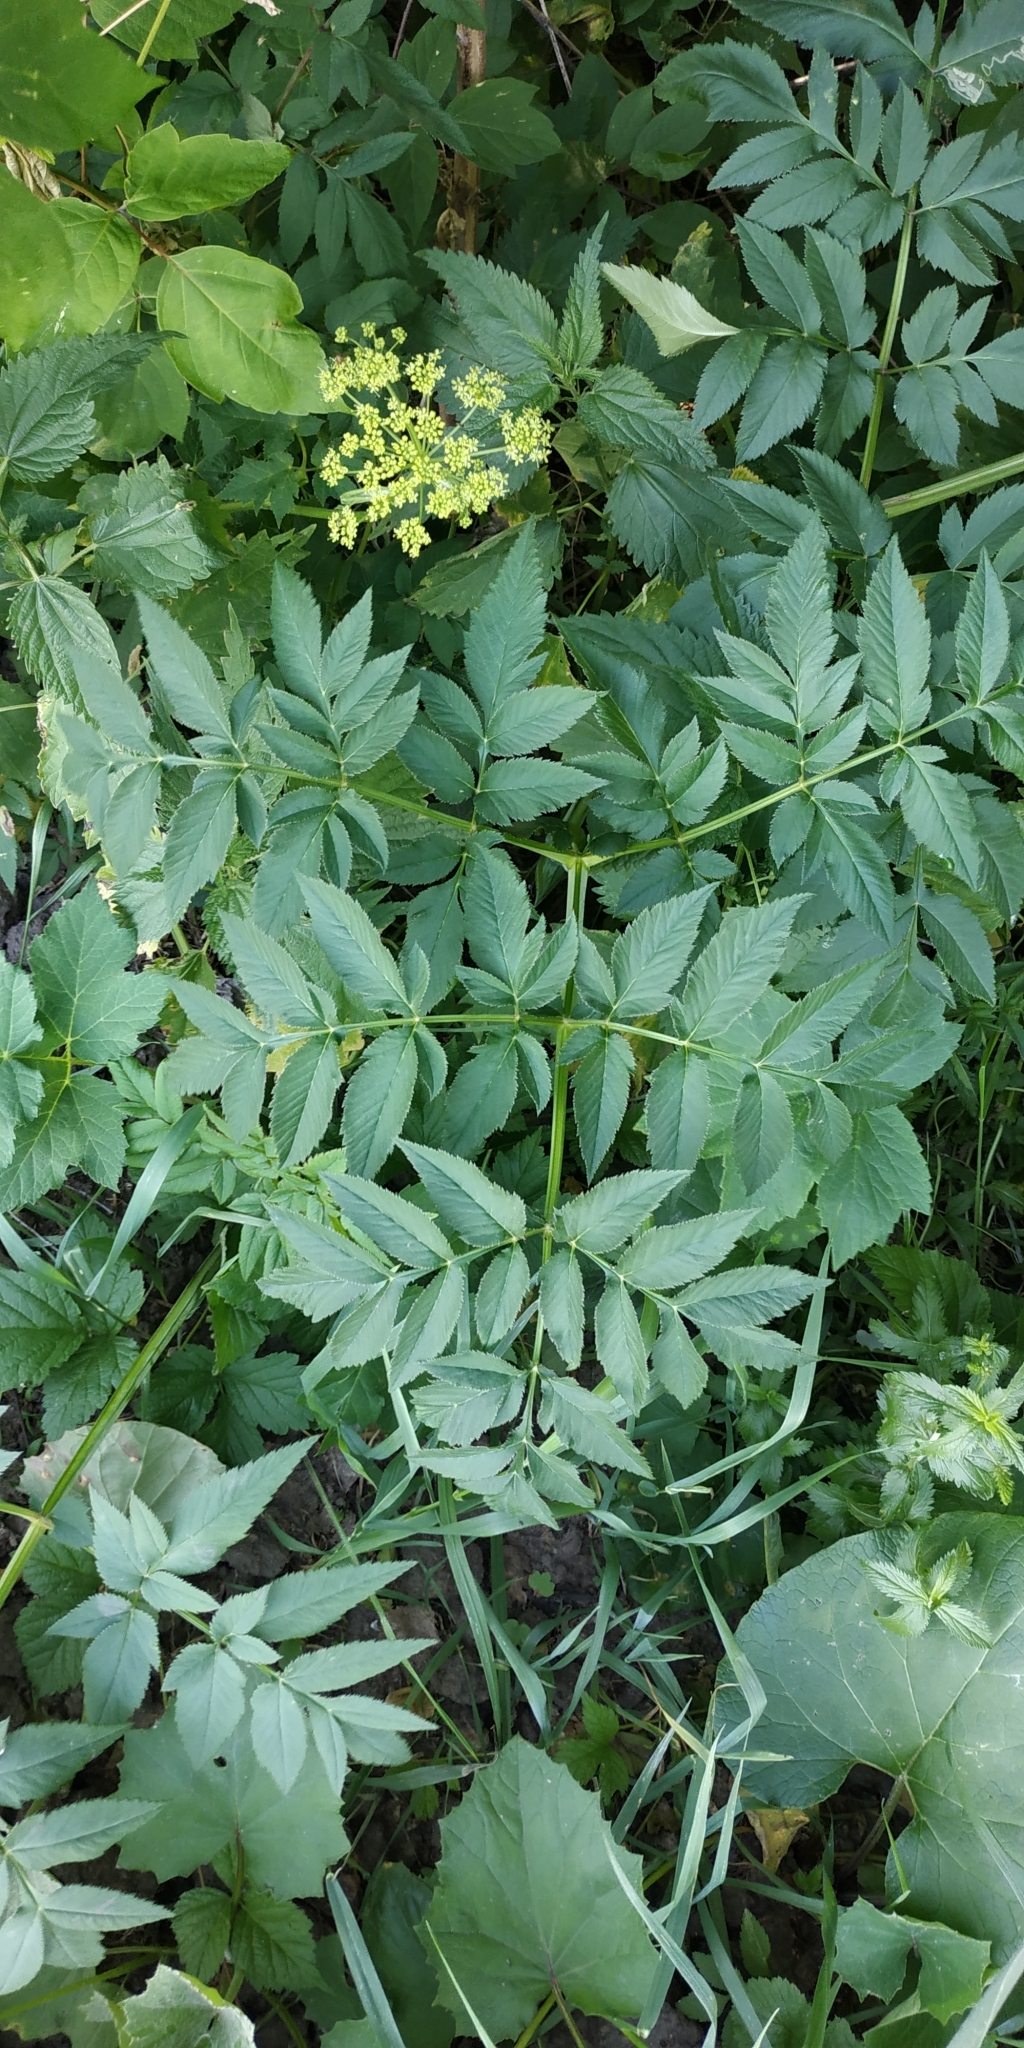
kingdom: Plantae
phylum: Tracheophyta
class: Magnoliopsida
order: Apiales
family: Apiaceae
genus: Angelica
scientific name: Angelica sylvestris
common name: Wild angelica
